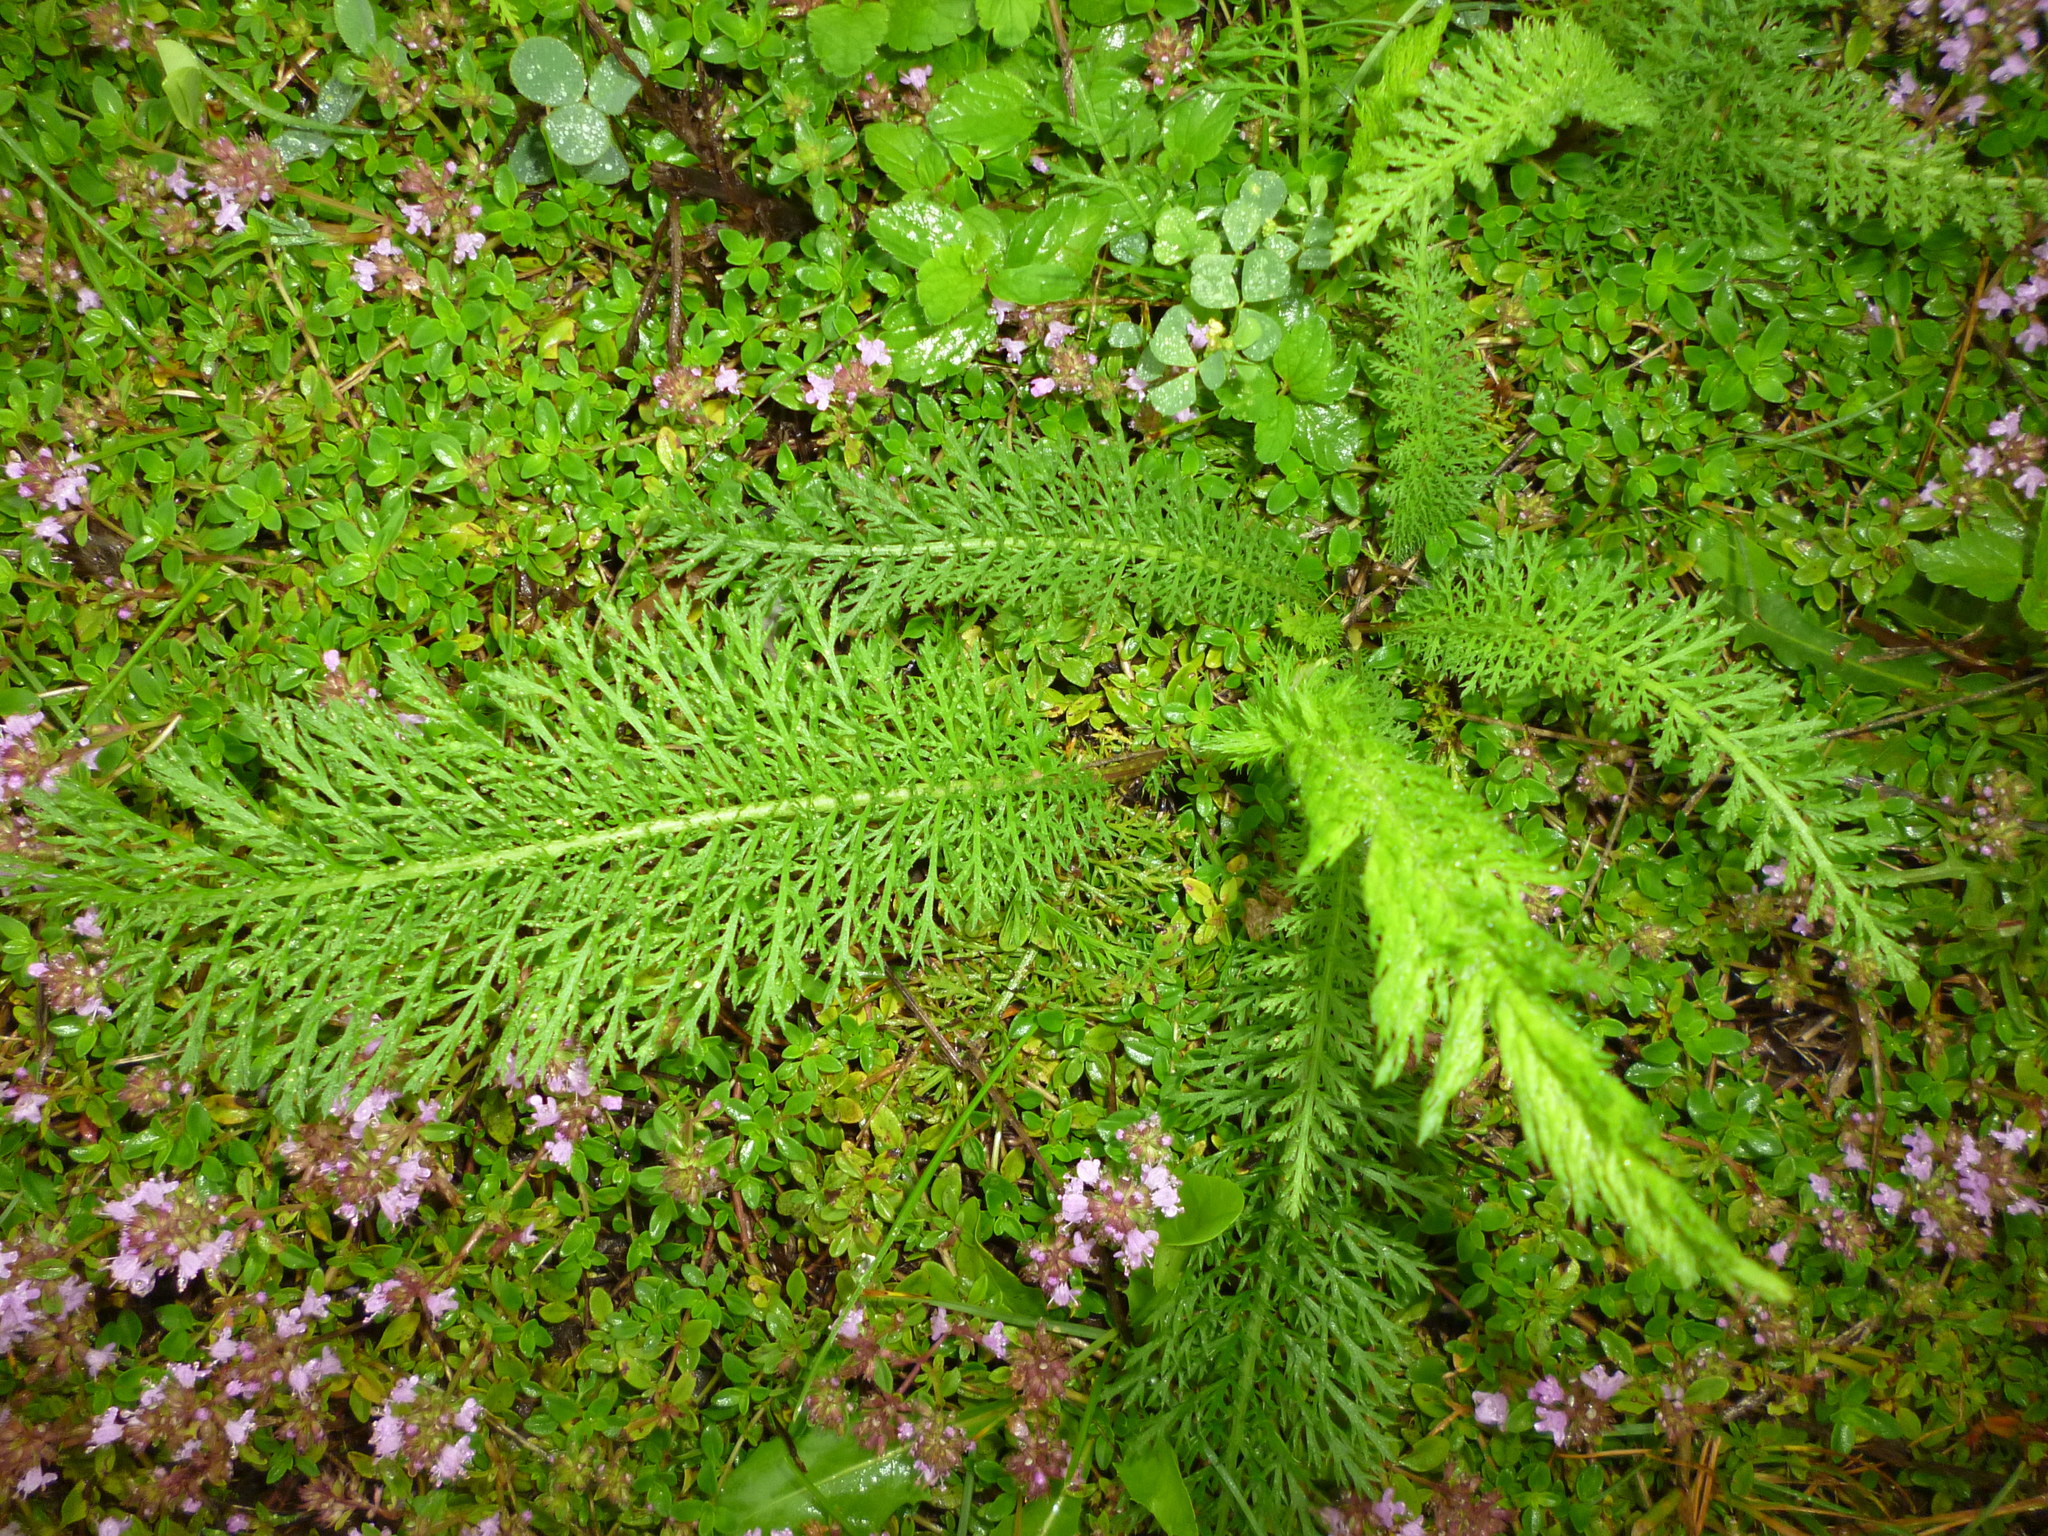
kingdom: Plantae
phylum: Tracheophyta
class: Magnoliopsida
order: Asterales
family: Asteraceae
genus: Achillea
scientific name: Achillea millefolium
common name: Yarrow
